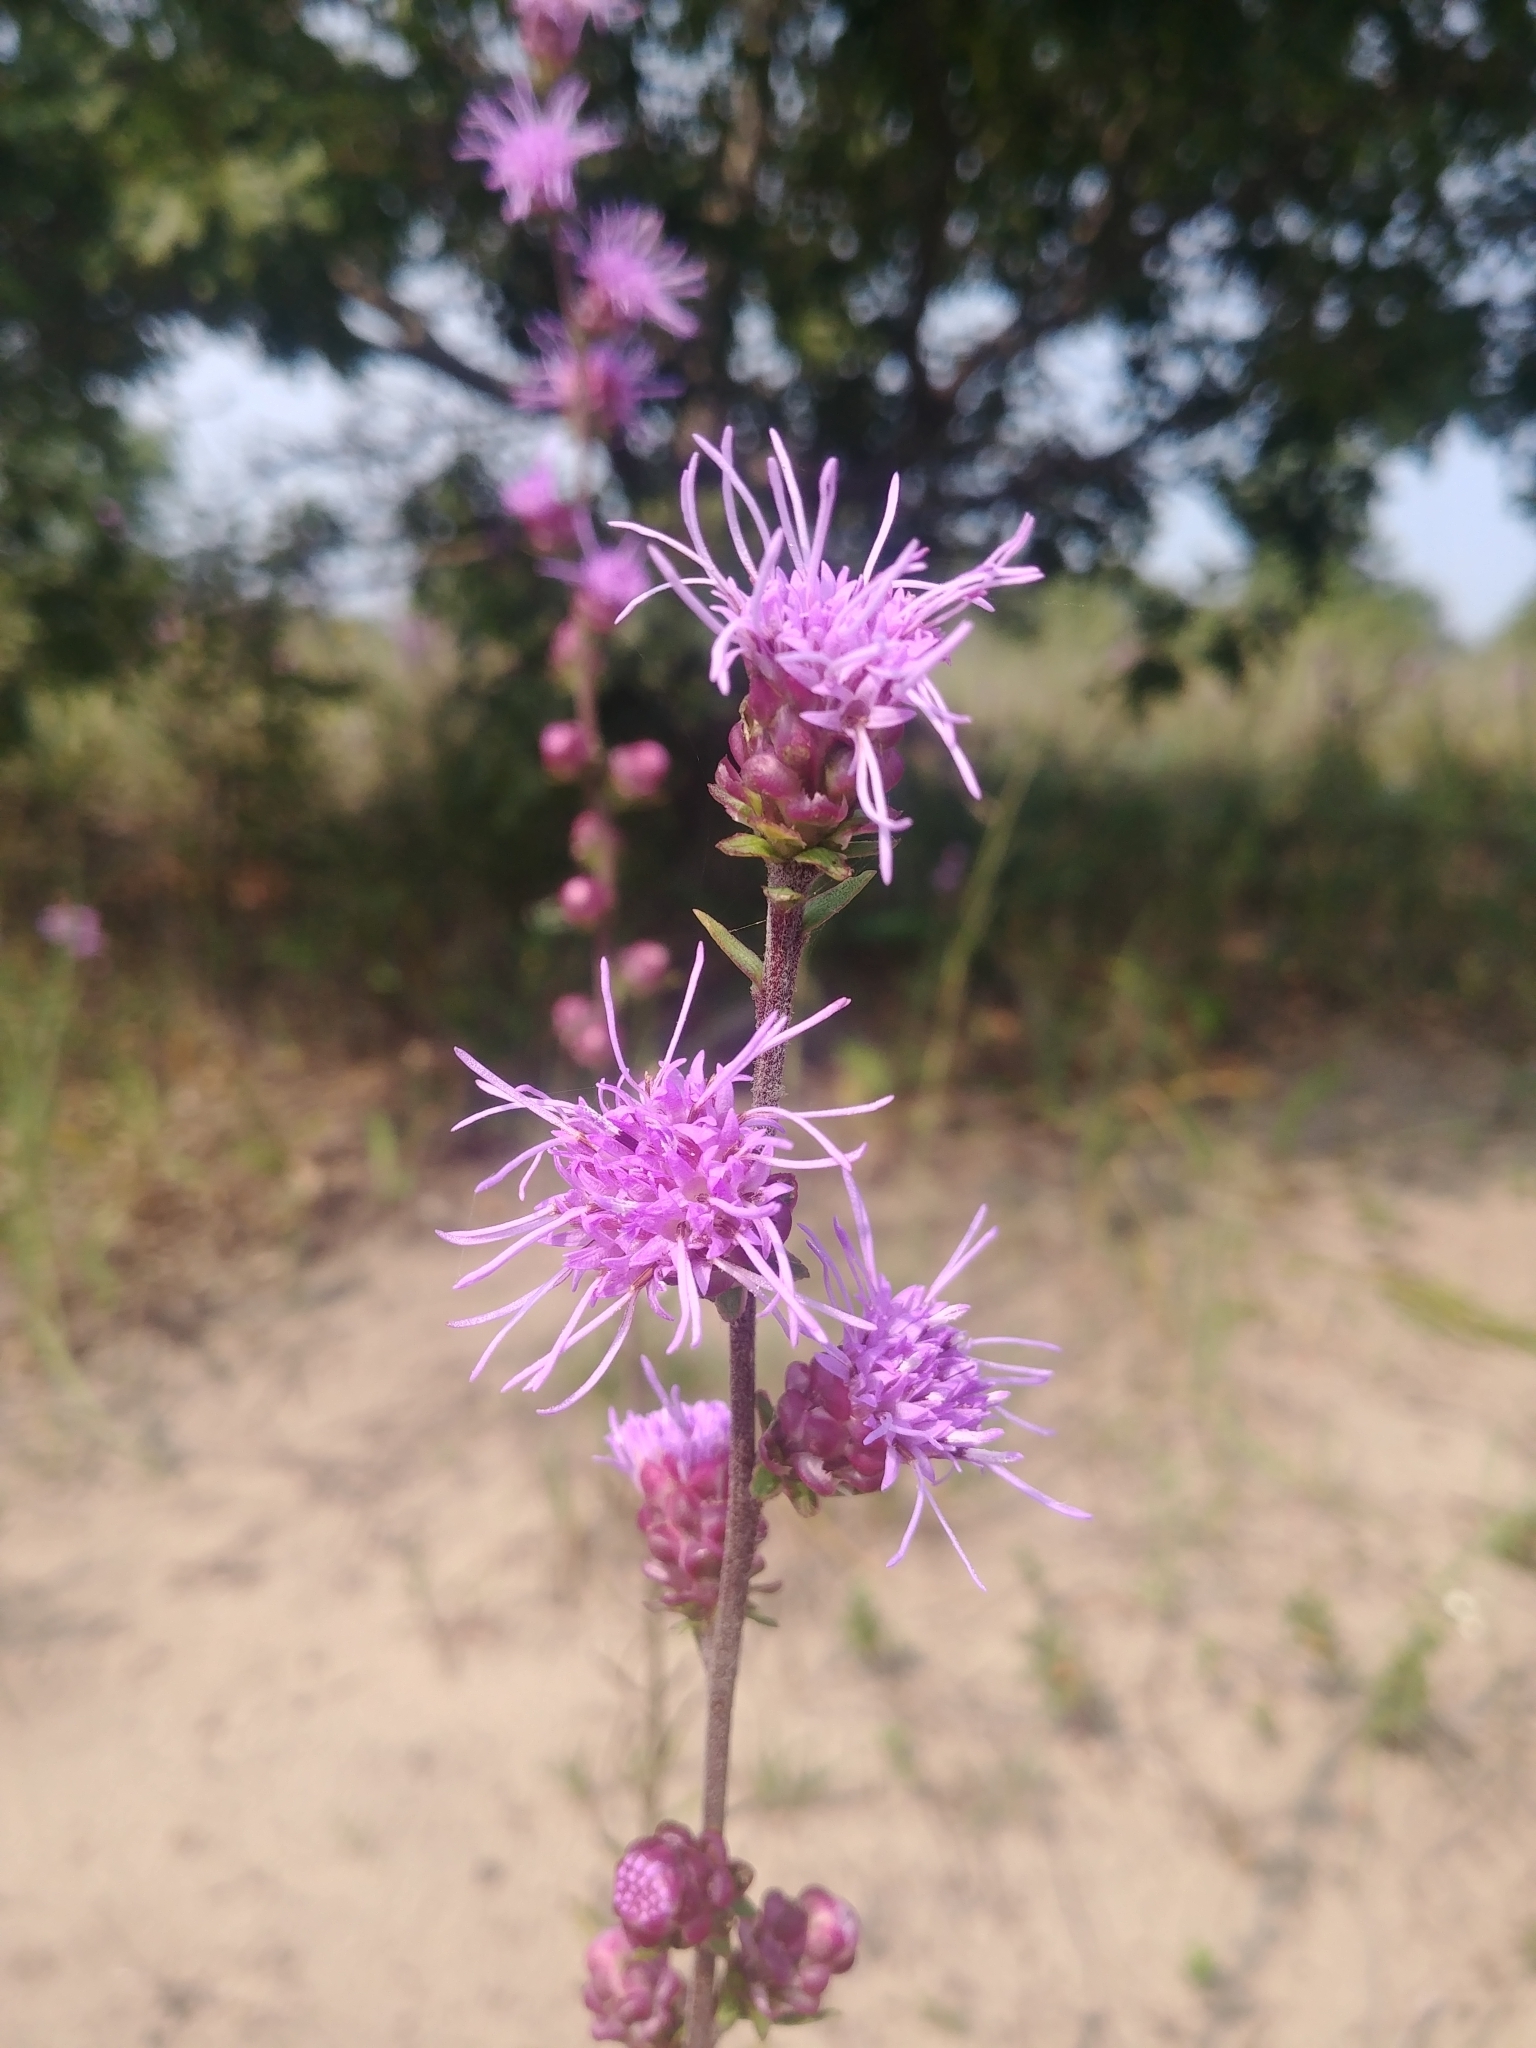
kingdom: Plantae
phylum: Tracheophyta
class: Magnoliopsida
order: Asterales
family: Asteraceae
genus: Liatris
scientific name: Liatris aspera
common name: Lacerate blazing-star
